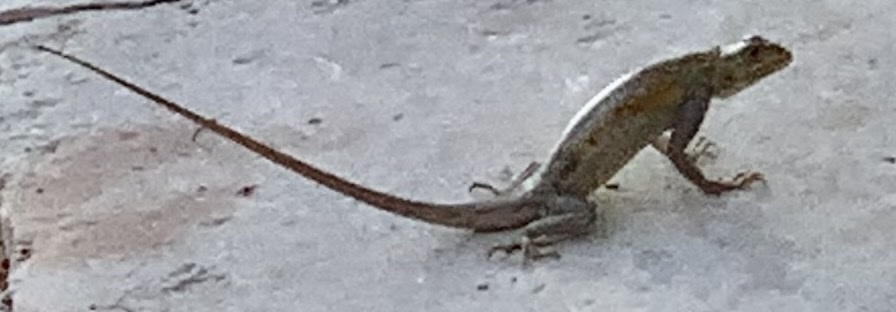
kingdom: Animalia
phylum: Chordata
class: Squamata
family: Agamidae
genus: Agama
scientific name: Agama picticauda
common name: Red-headed agama
